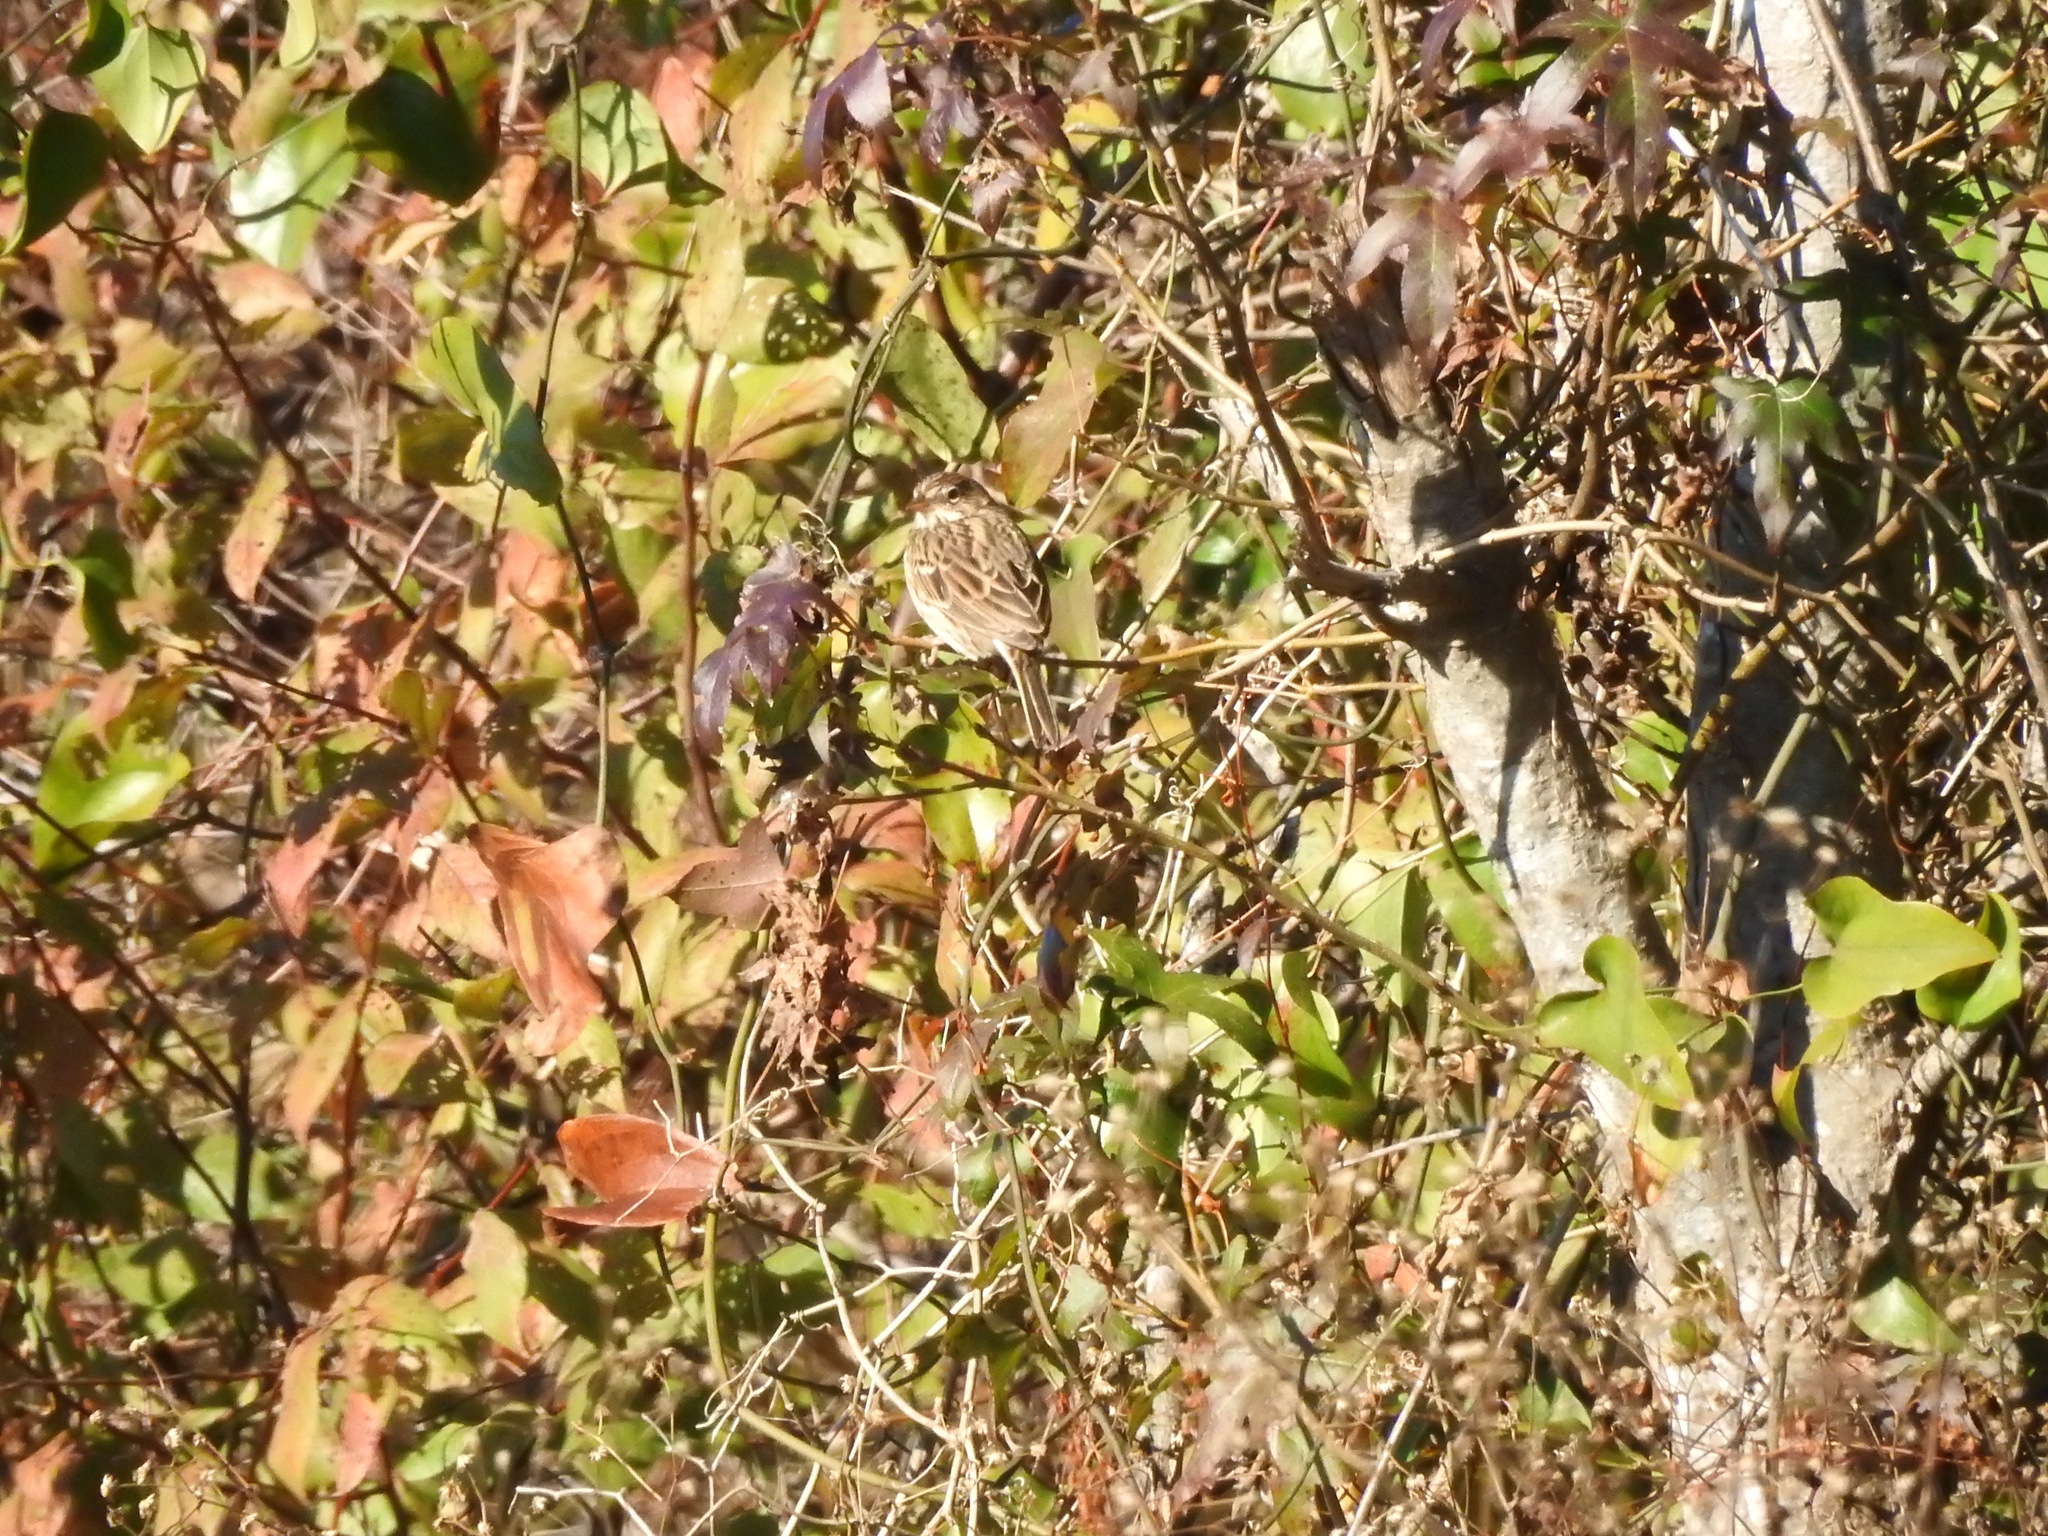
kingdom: Animalia
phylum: Chordata
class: Aves
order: Passeriformes
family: Passerellidae
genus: Pooecetes
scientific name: Pooecetes gramineus
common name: Vesper sparrow
